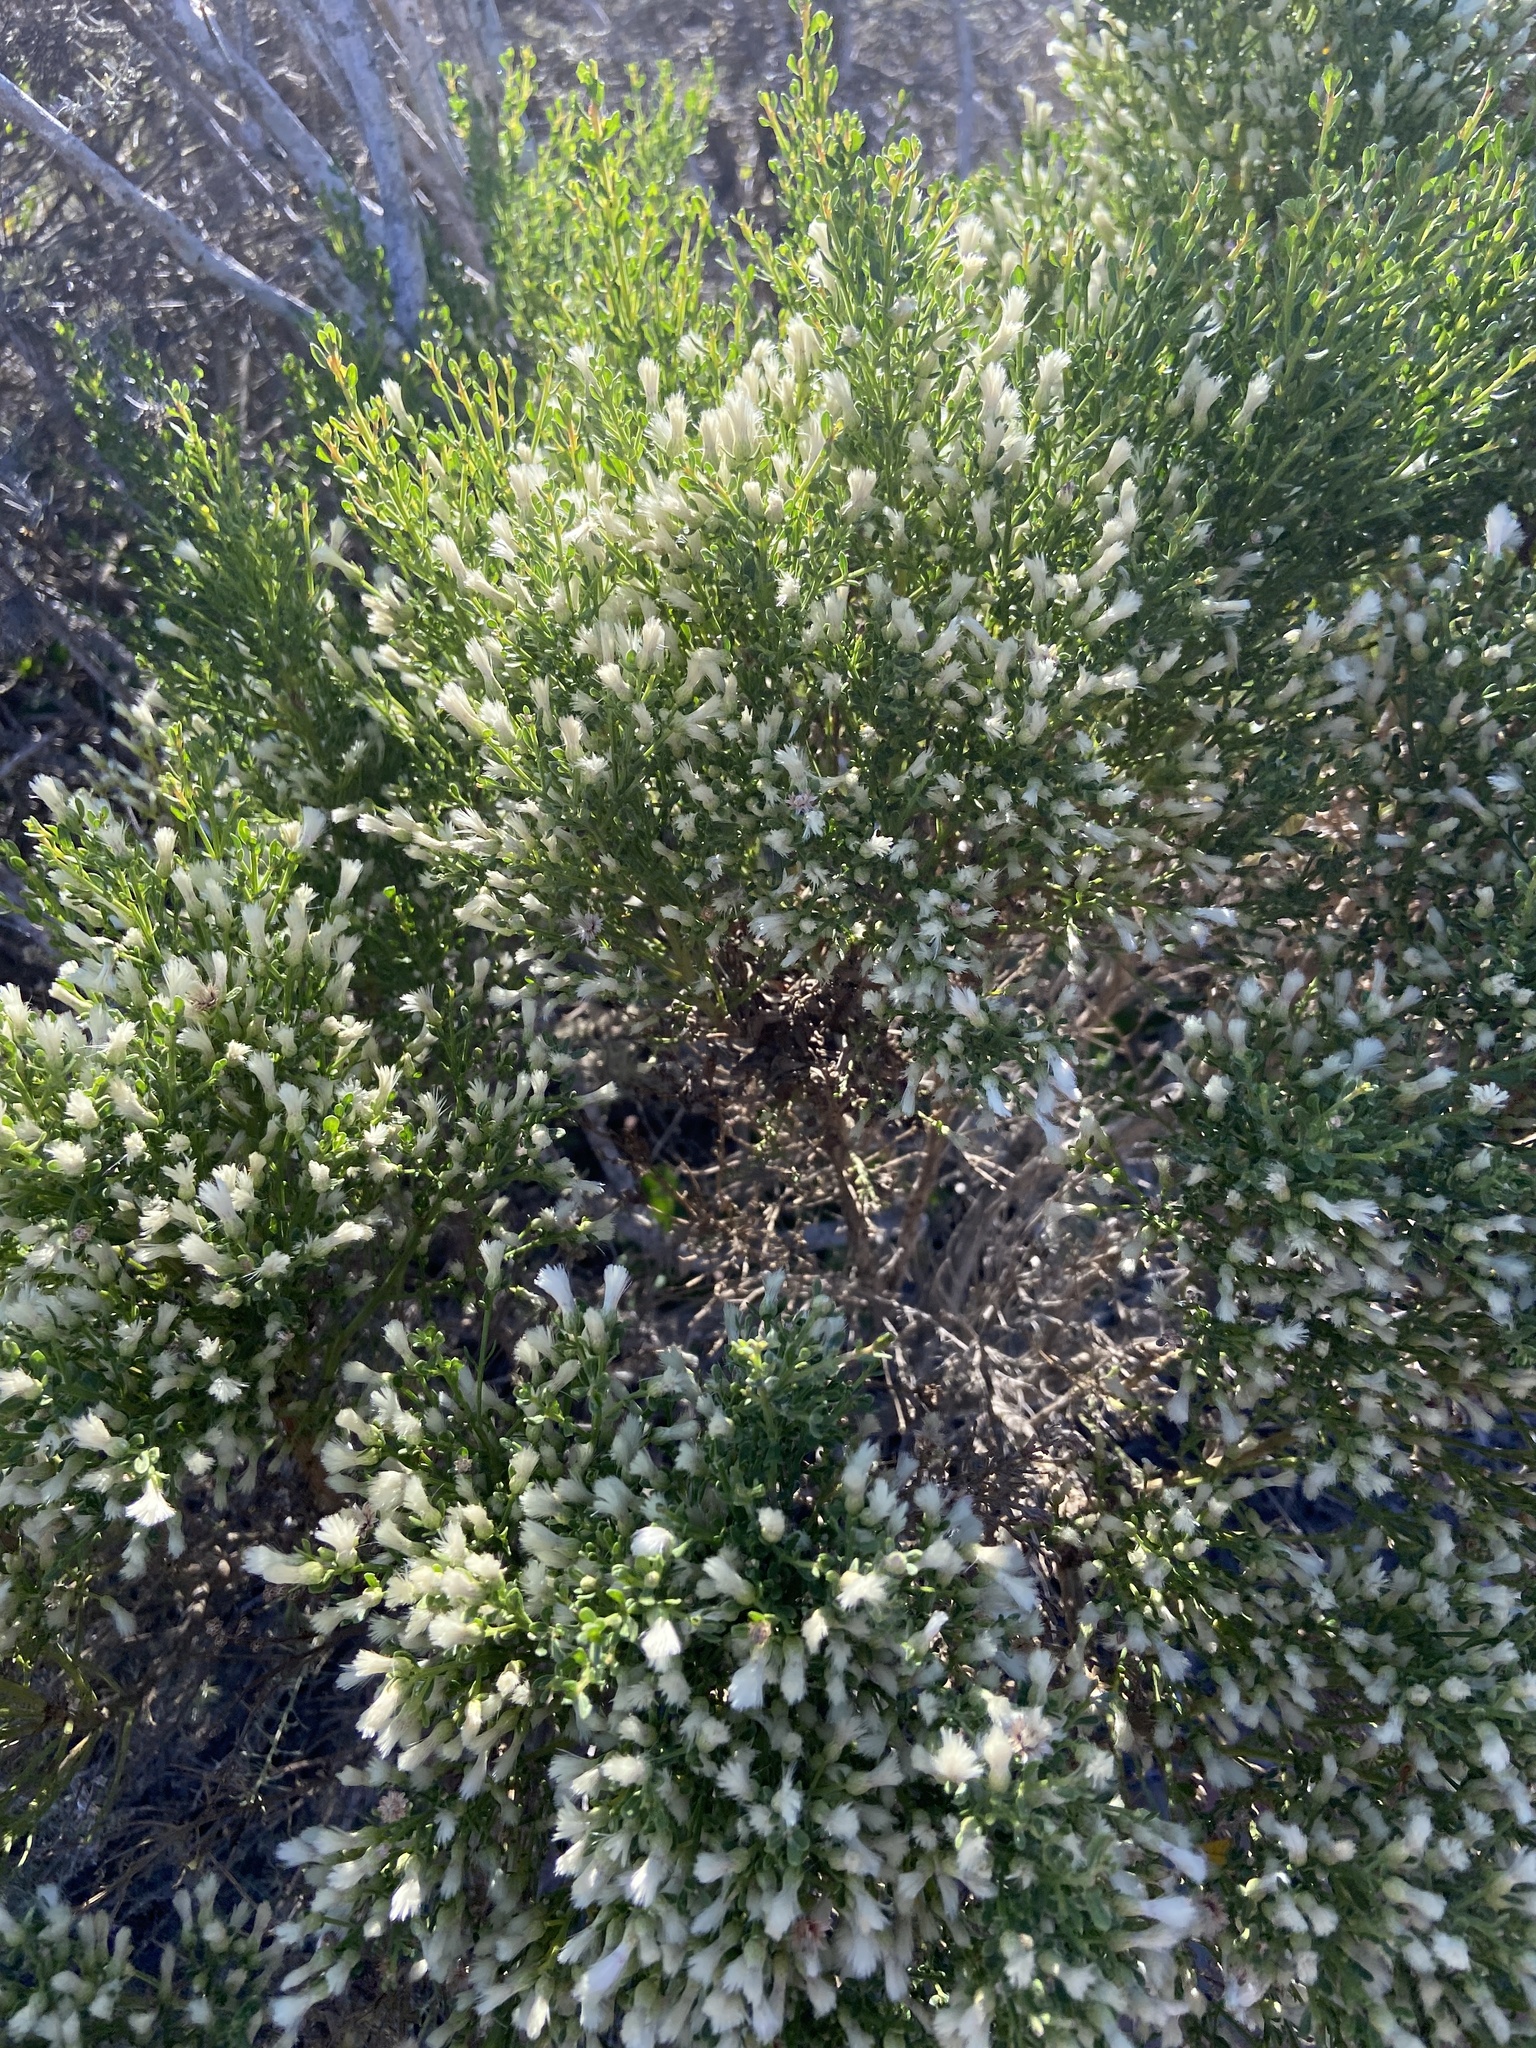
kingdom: Plantae
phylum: Tracheophyta
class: Magnoliopsida
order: Asterales
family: Asteraceae
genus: Baccharis
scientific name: Baccharis pilularis
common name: Coyotebrush
